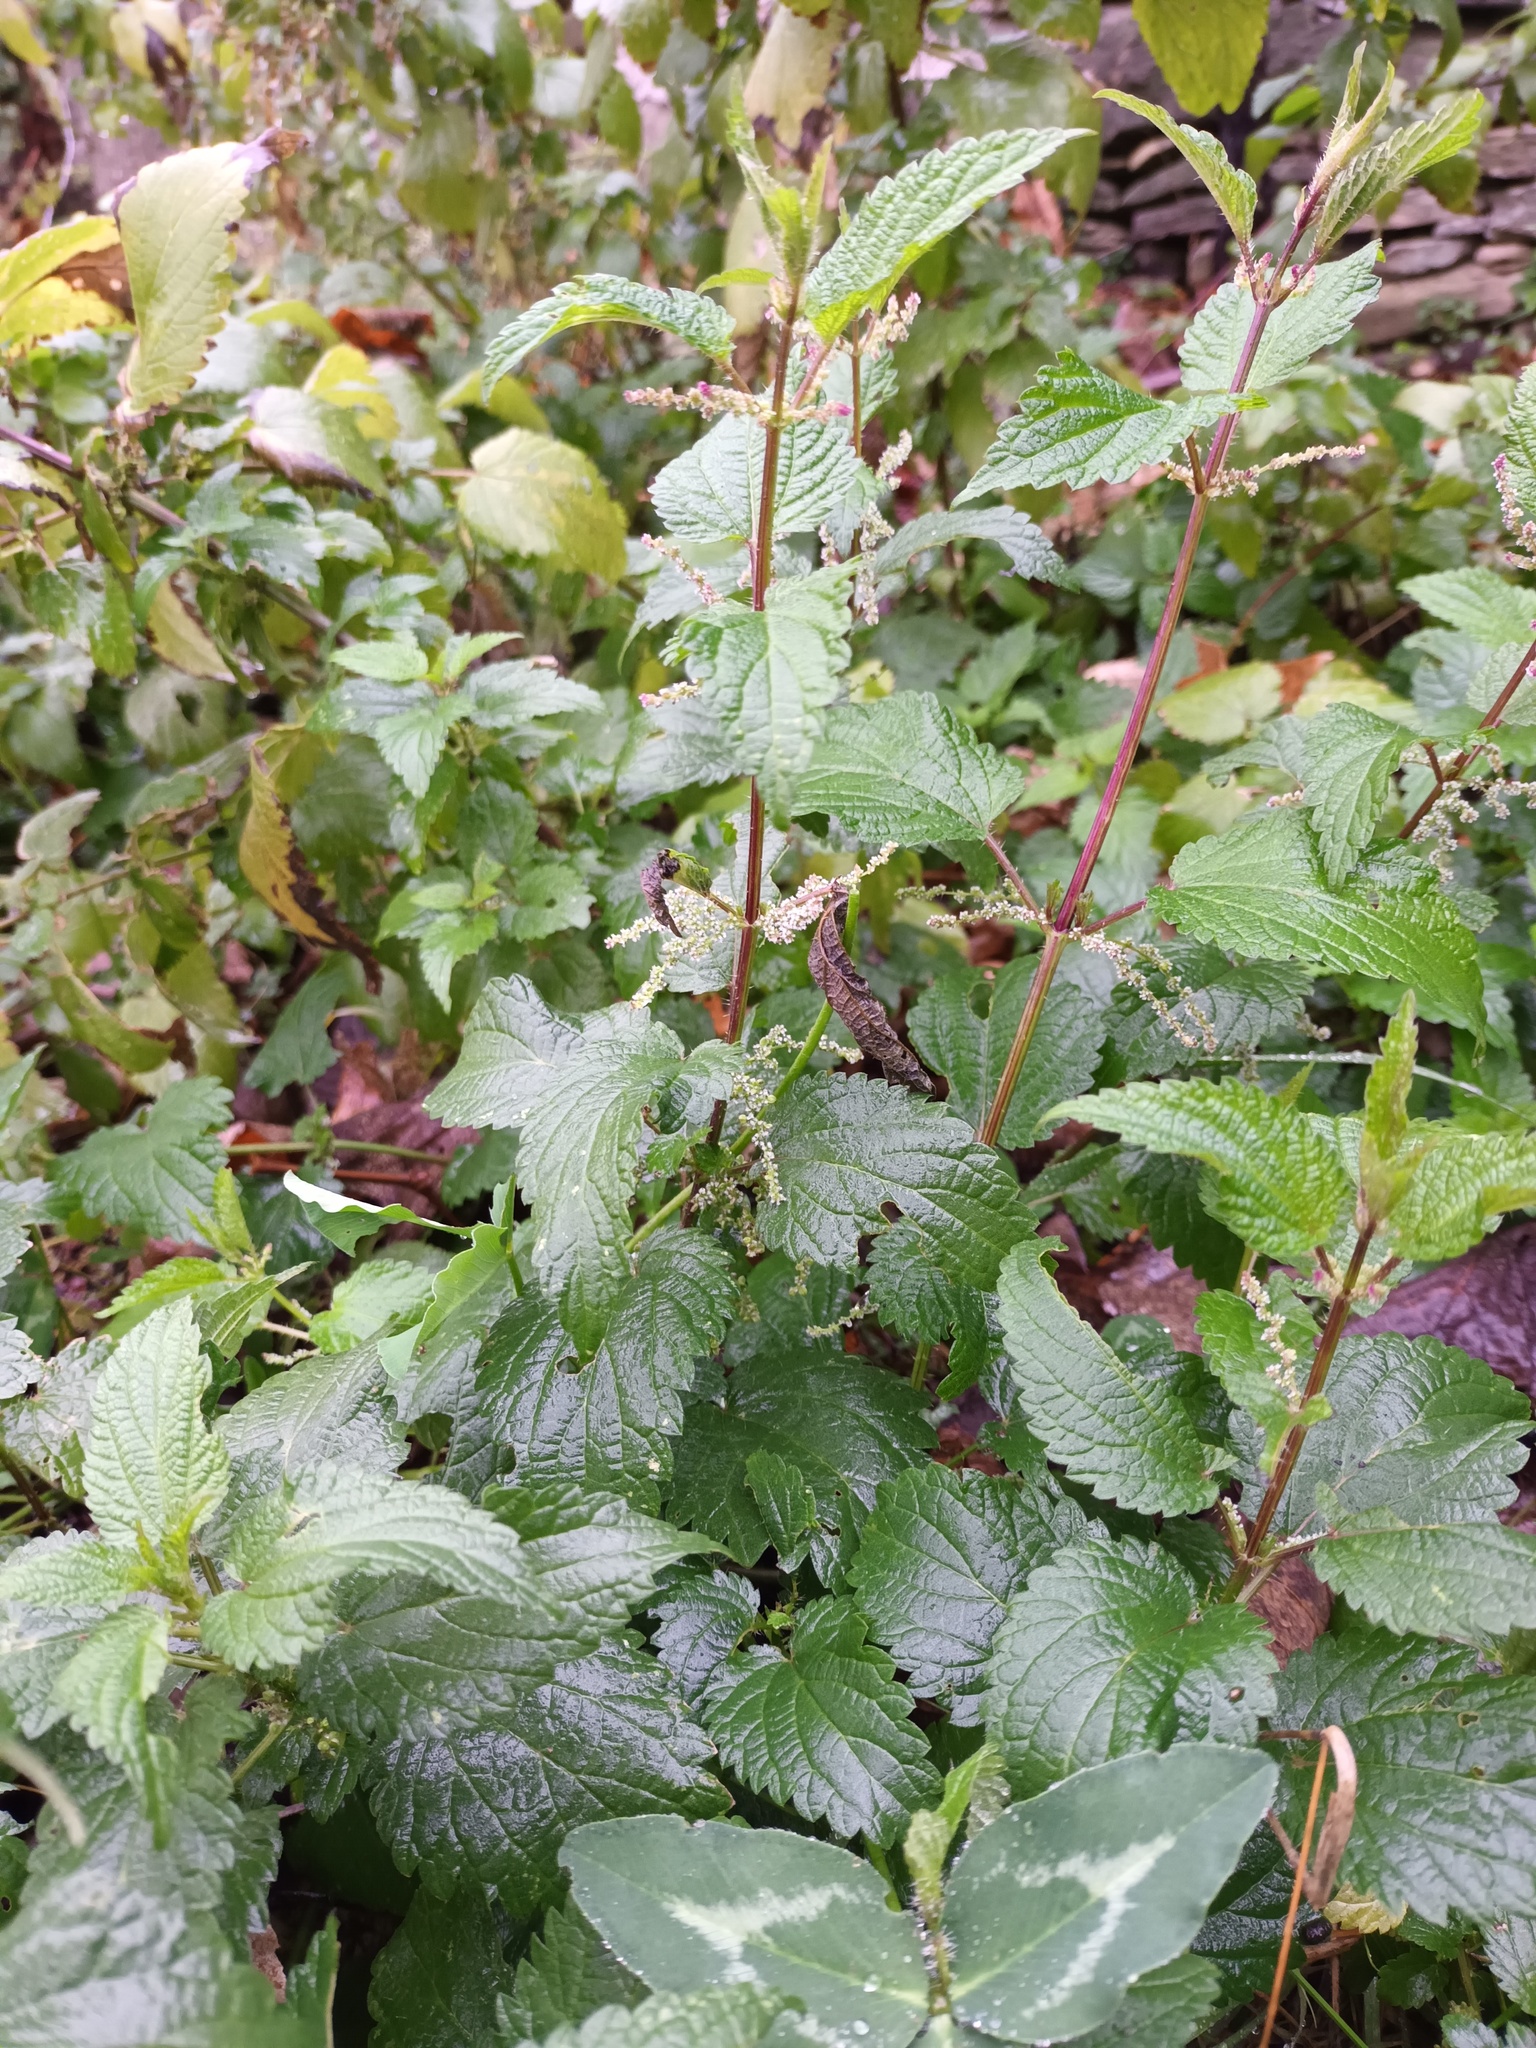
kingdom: Plantae
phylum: Tracheophyta
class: Magnoliopsida
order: Rosales
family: Urticaceae
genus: Urtica
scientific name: Urtica dioica
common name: Common nettle
